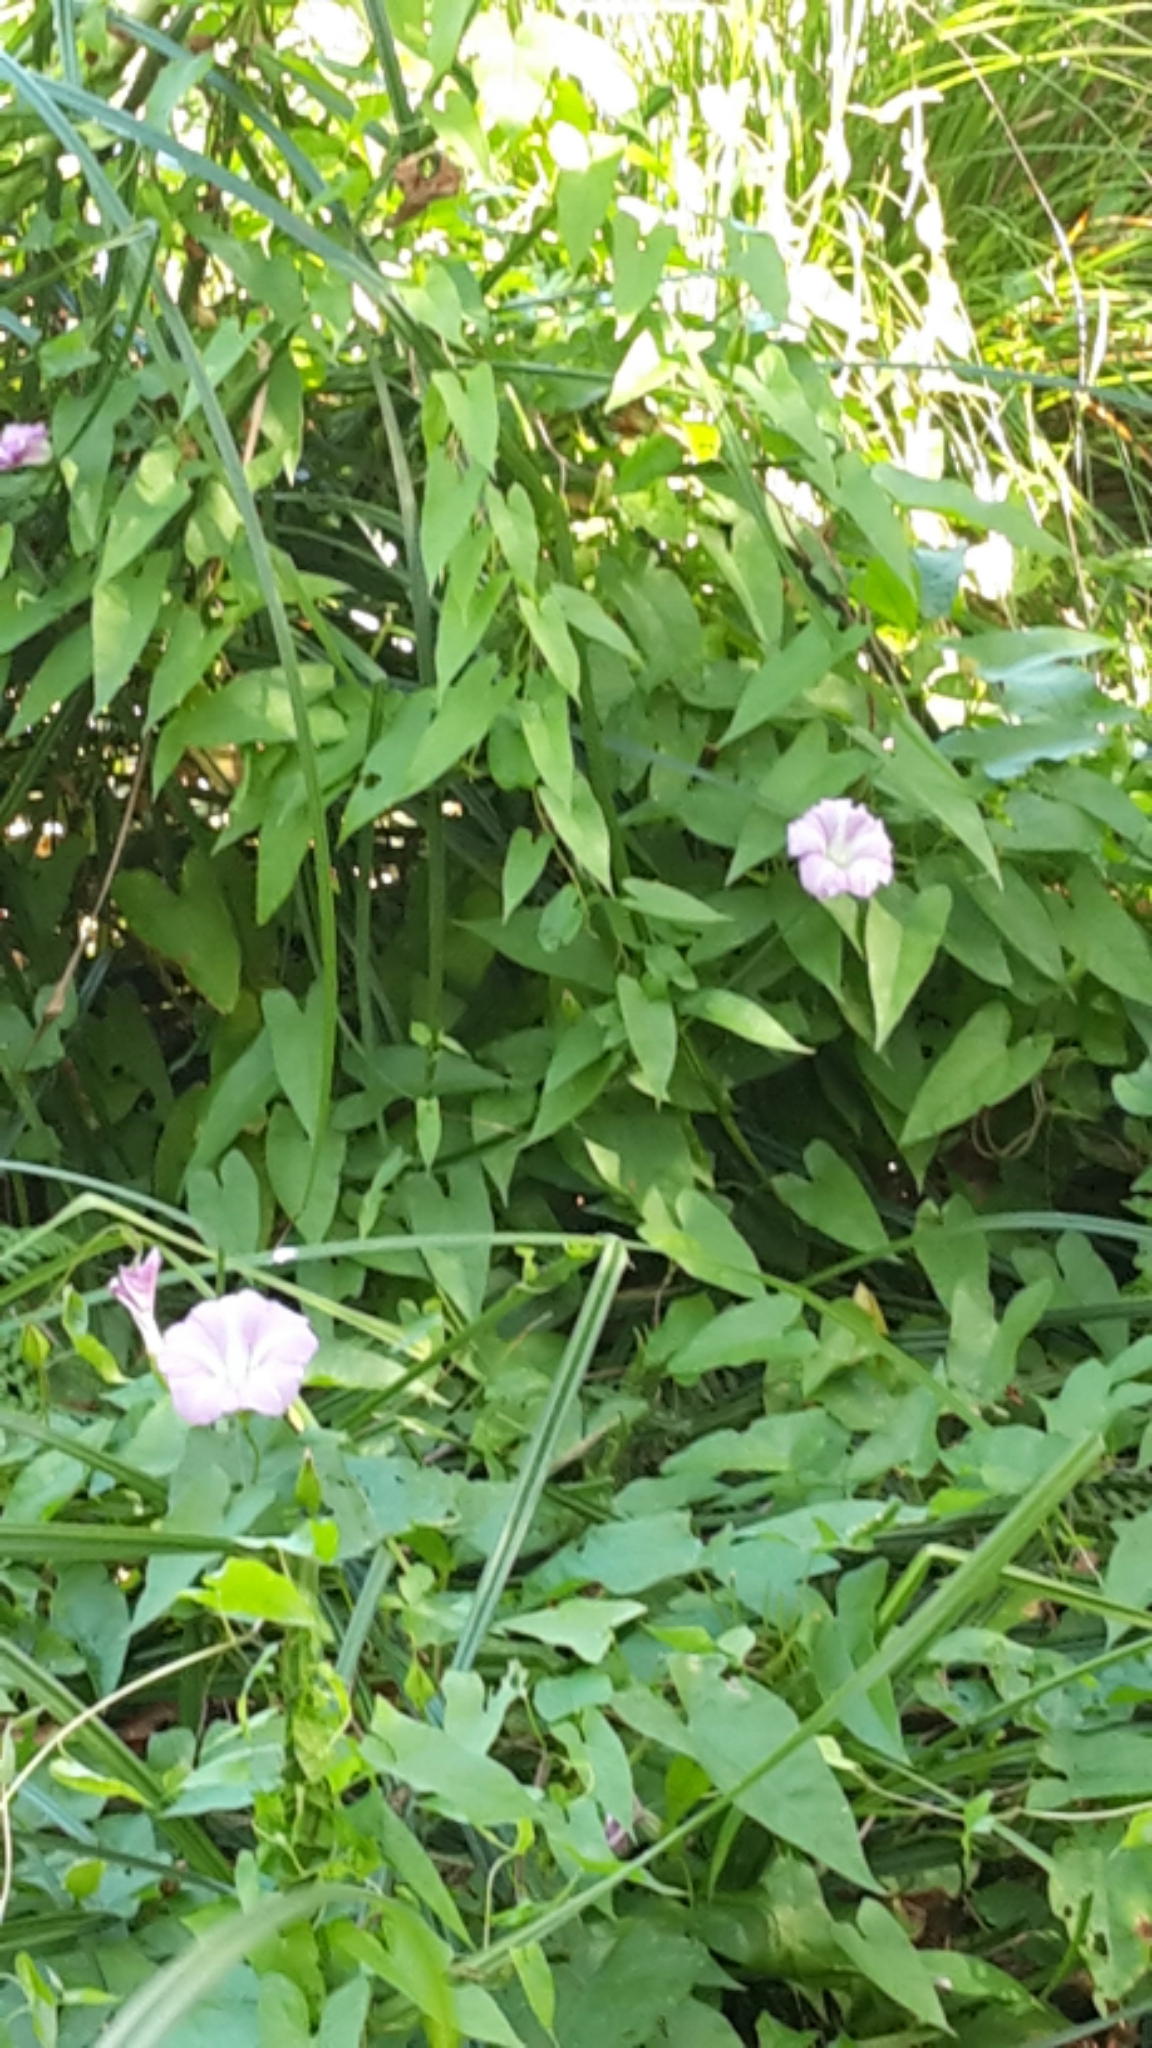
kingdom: Plantae
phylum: Tracheophyta
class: Magnoliopsida
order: Solanales
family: Convolvulaceae
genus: Calystegia
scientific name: Calystegia sepium
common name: Hedge bindweed
